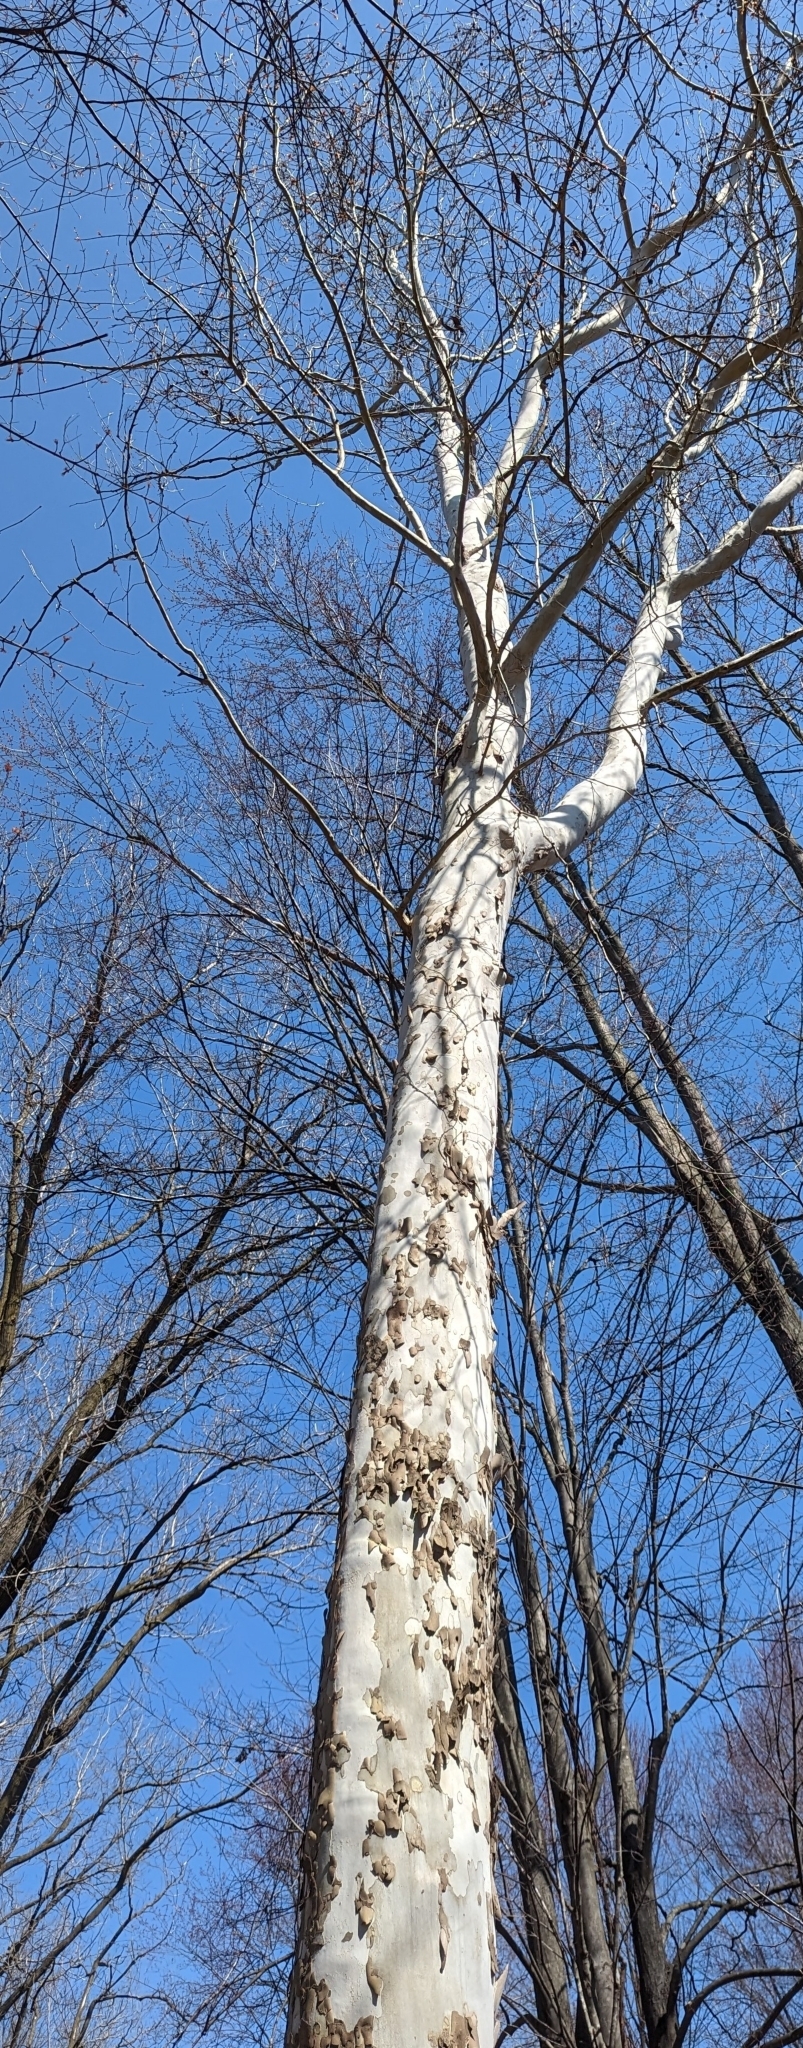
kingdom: Plantae
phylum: Tracheophyta
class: Magnoliopsida
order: Proteales
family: Platanaceae
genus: Platanus
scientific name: Platanus occidentalis
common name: American sycamore
